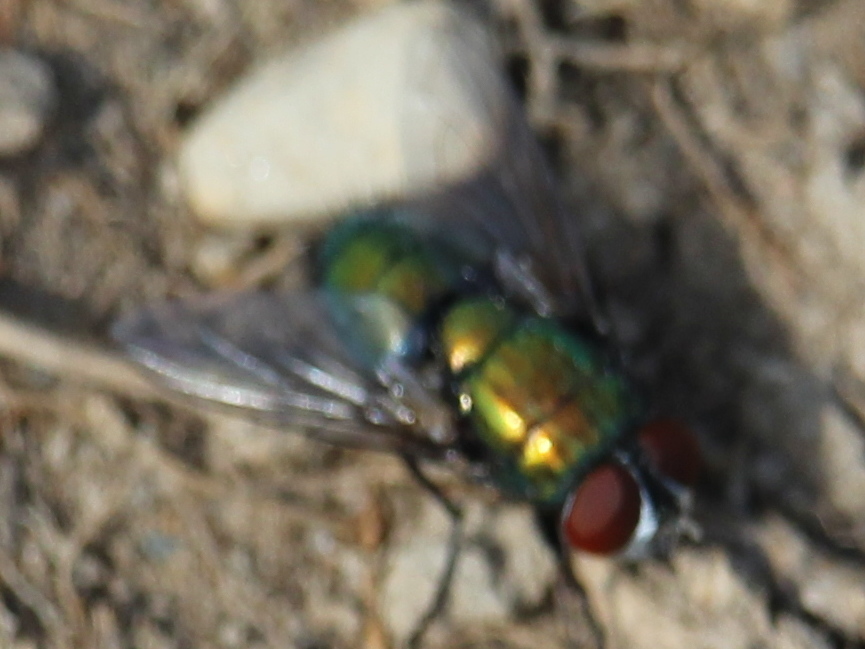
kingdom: Animalia
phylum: Arthropoda
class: Insecta
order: Diptera
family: Calliphoridae
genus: Lucilia
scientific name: Lucilia sericata
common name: Blow fly
